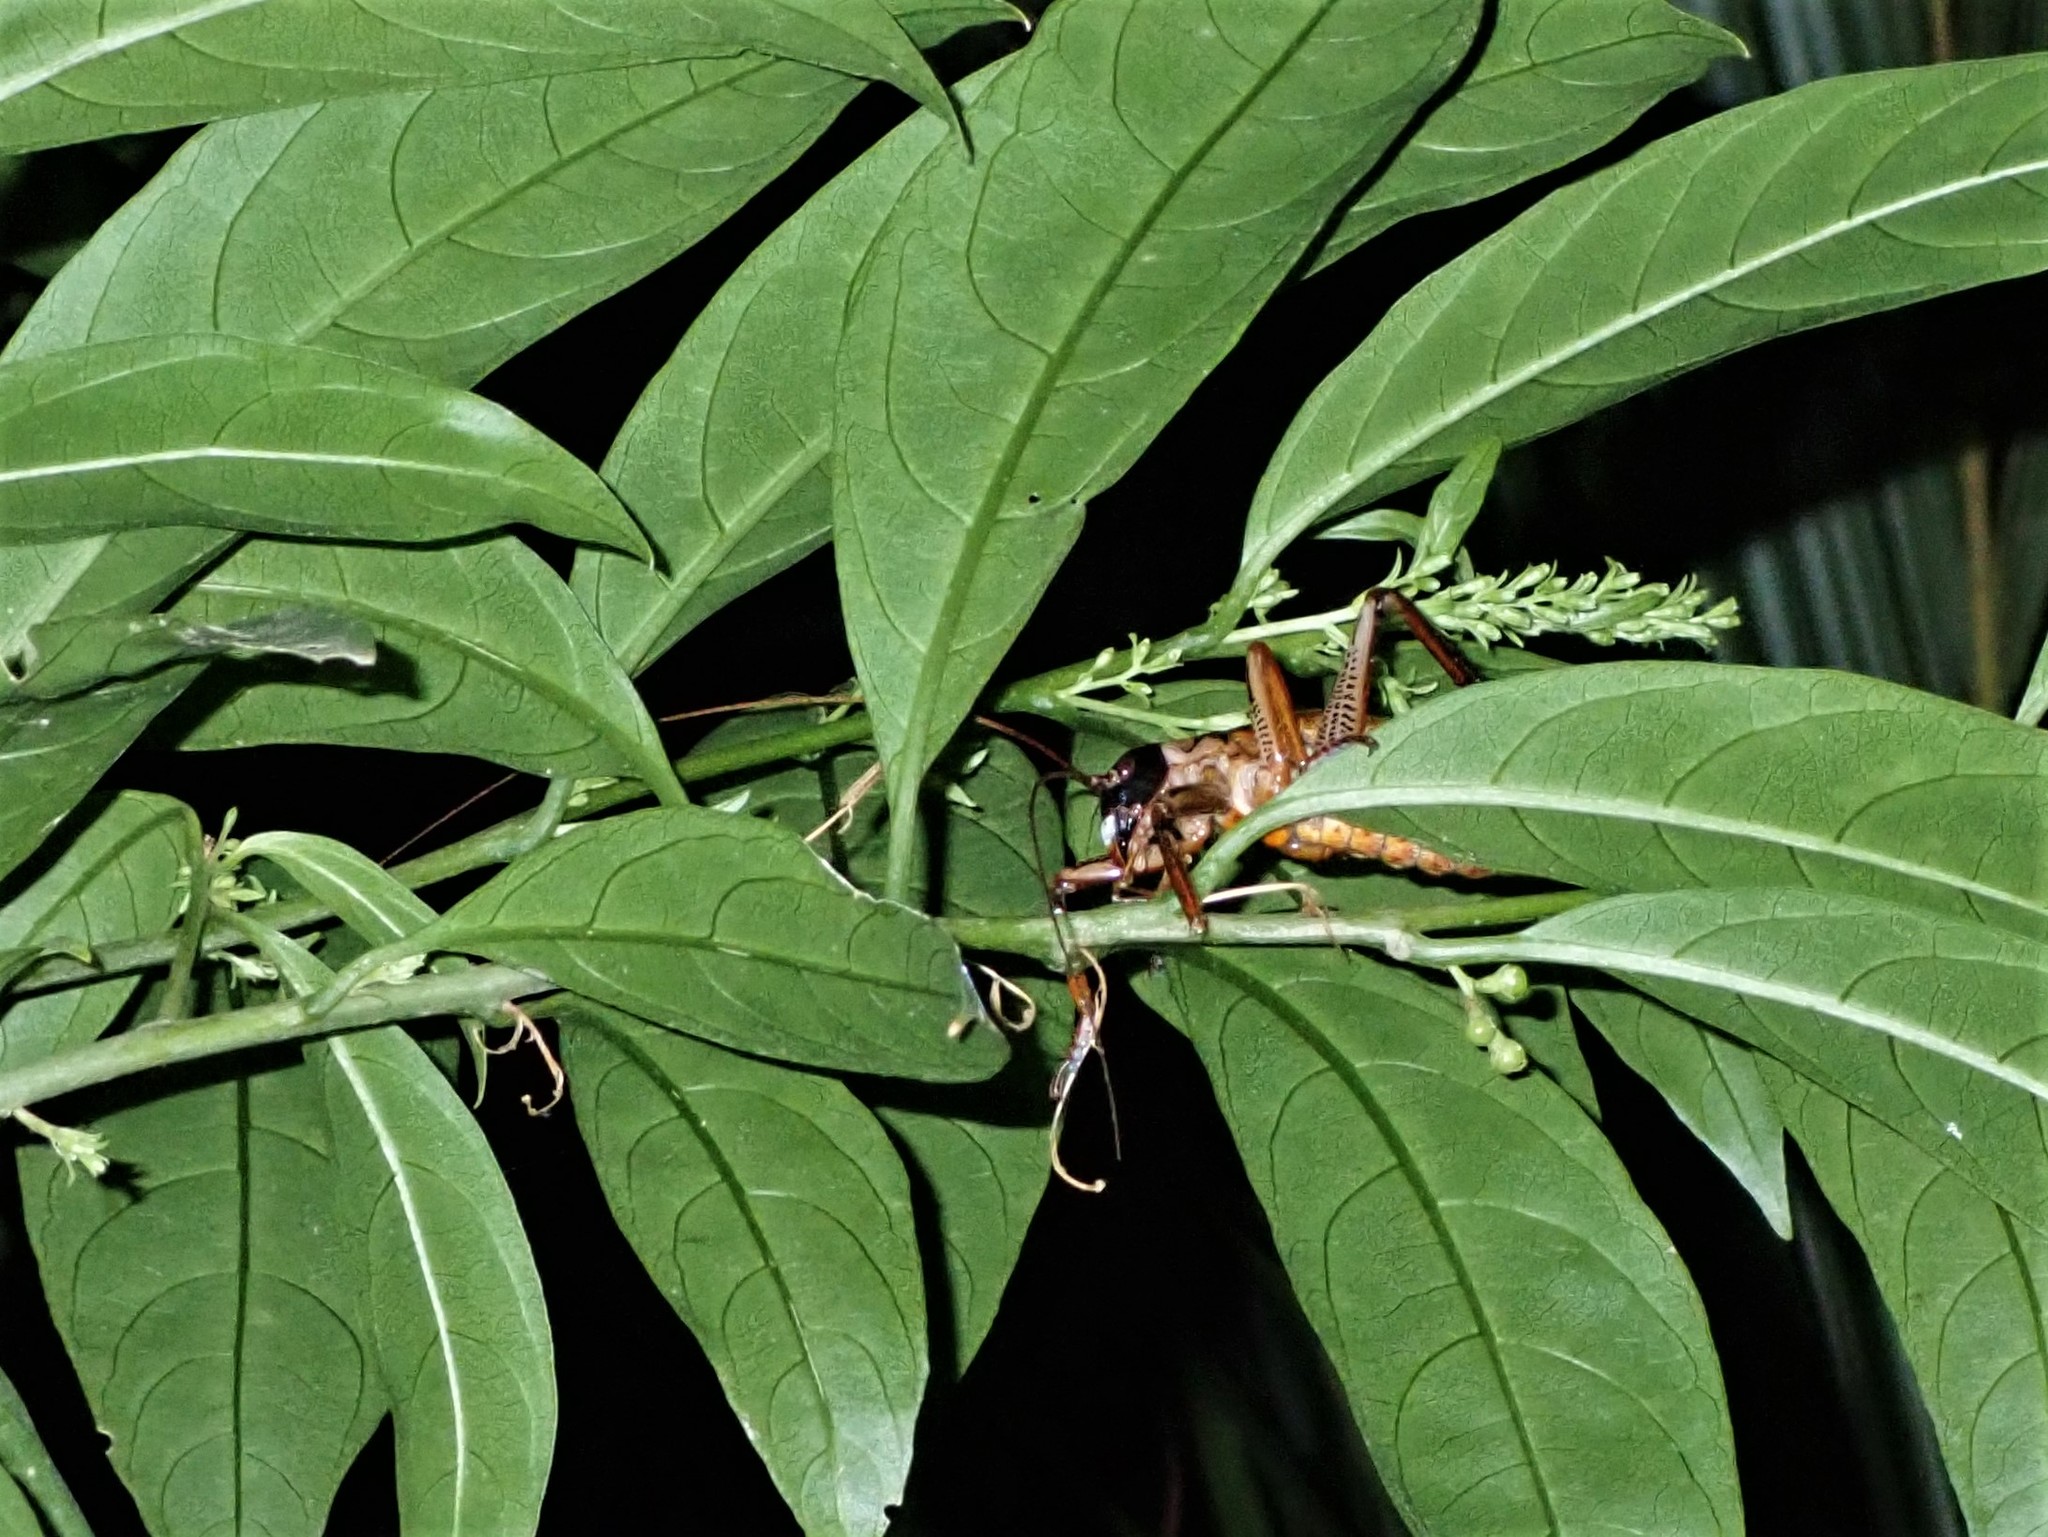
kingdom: Animalia
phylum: Arthropoda
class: Insecta
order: Orthoptera
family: Anostostomatidae
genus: Hemideina
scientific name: Hemideina thoracica
